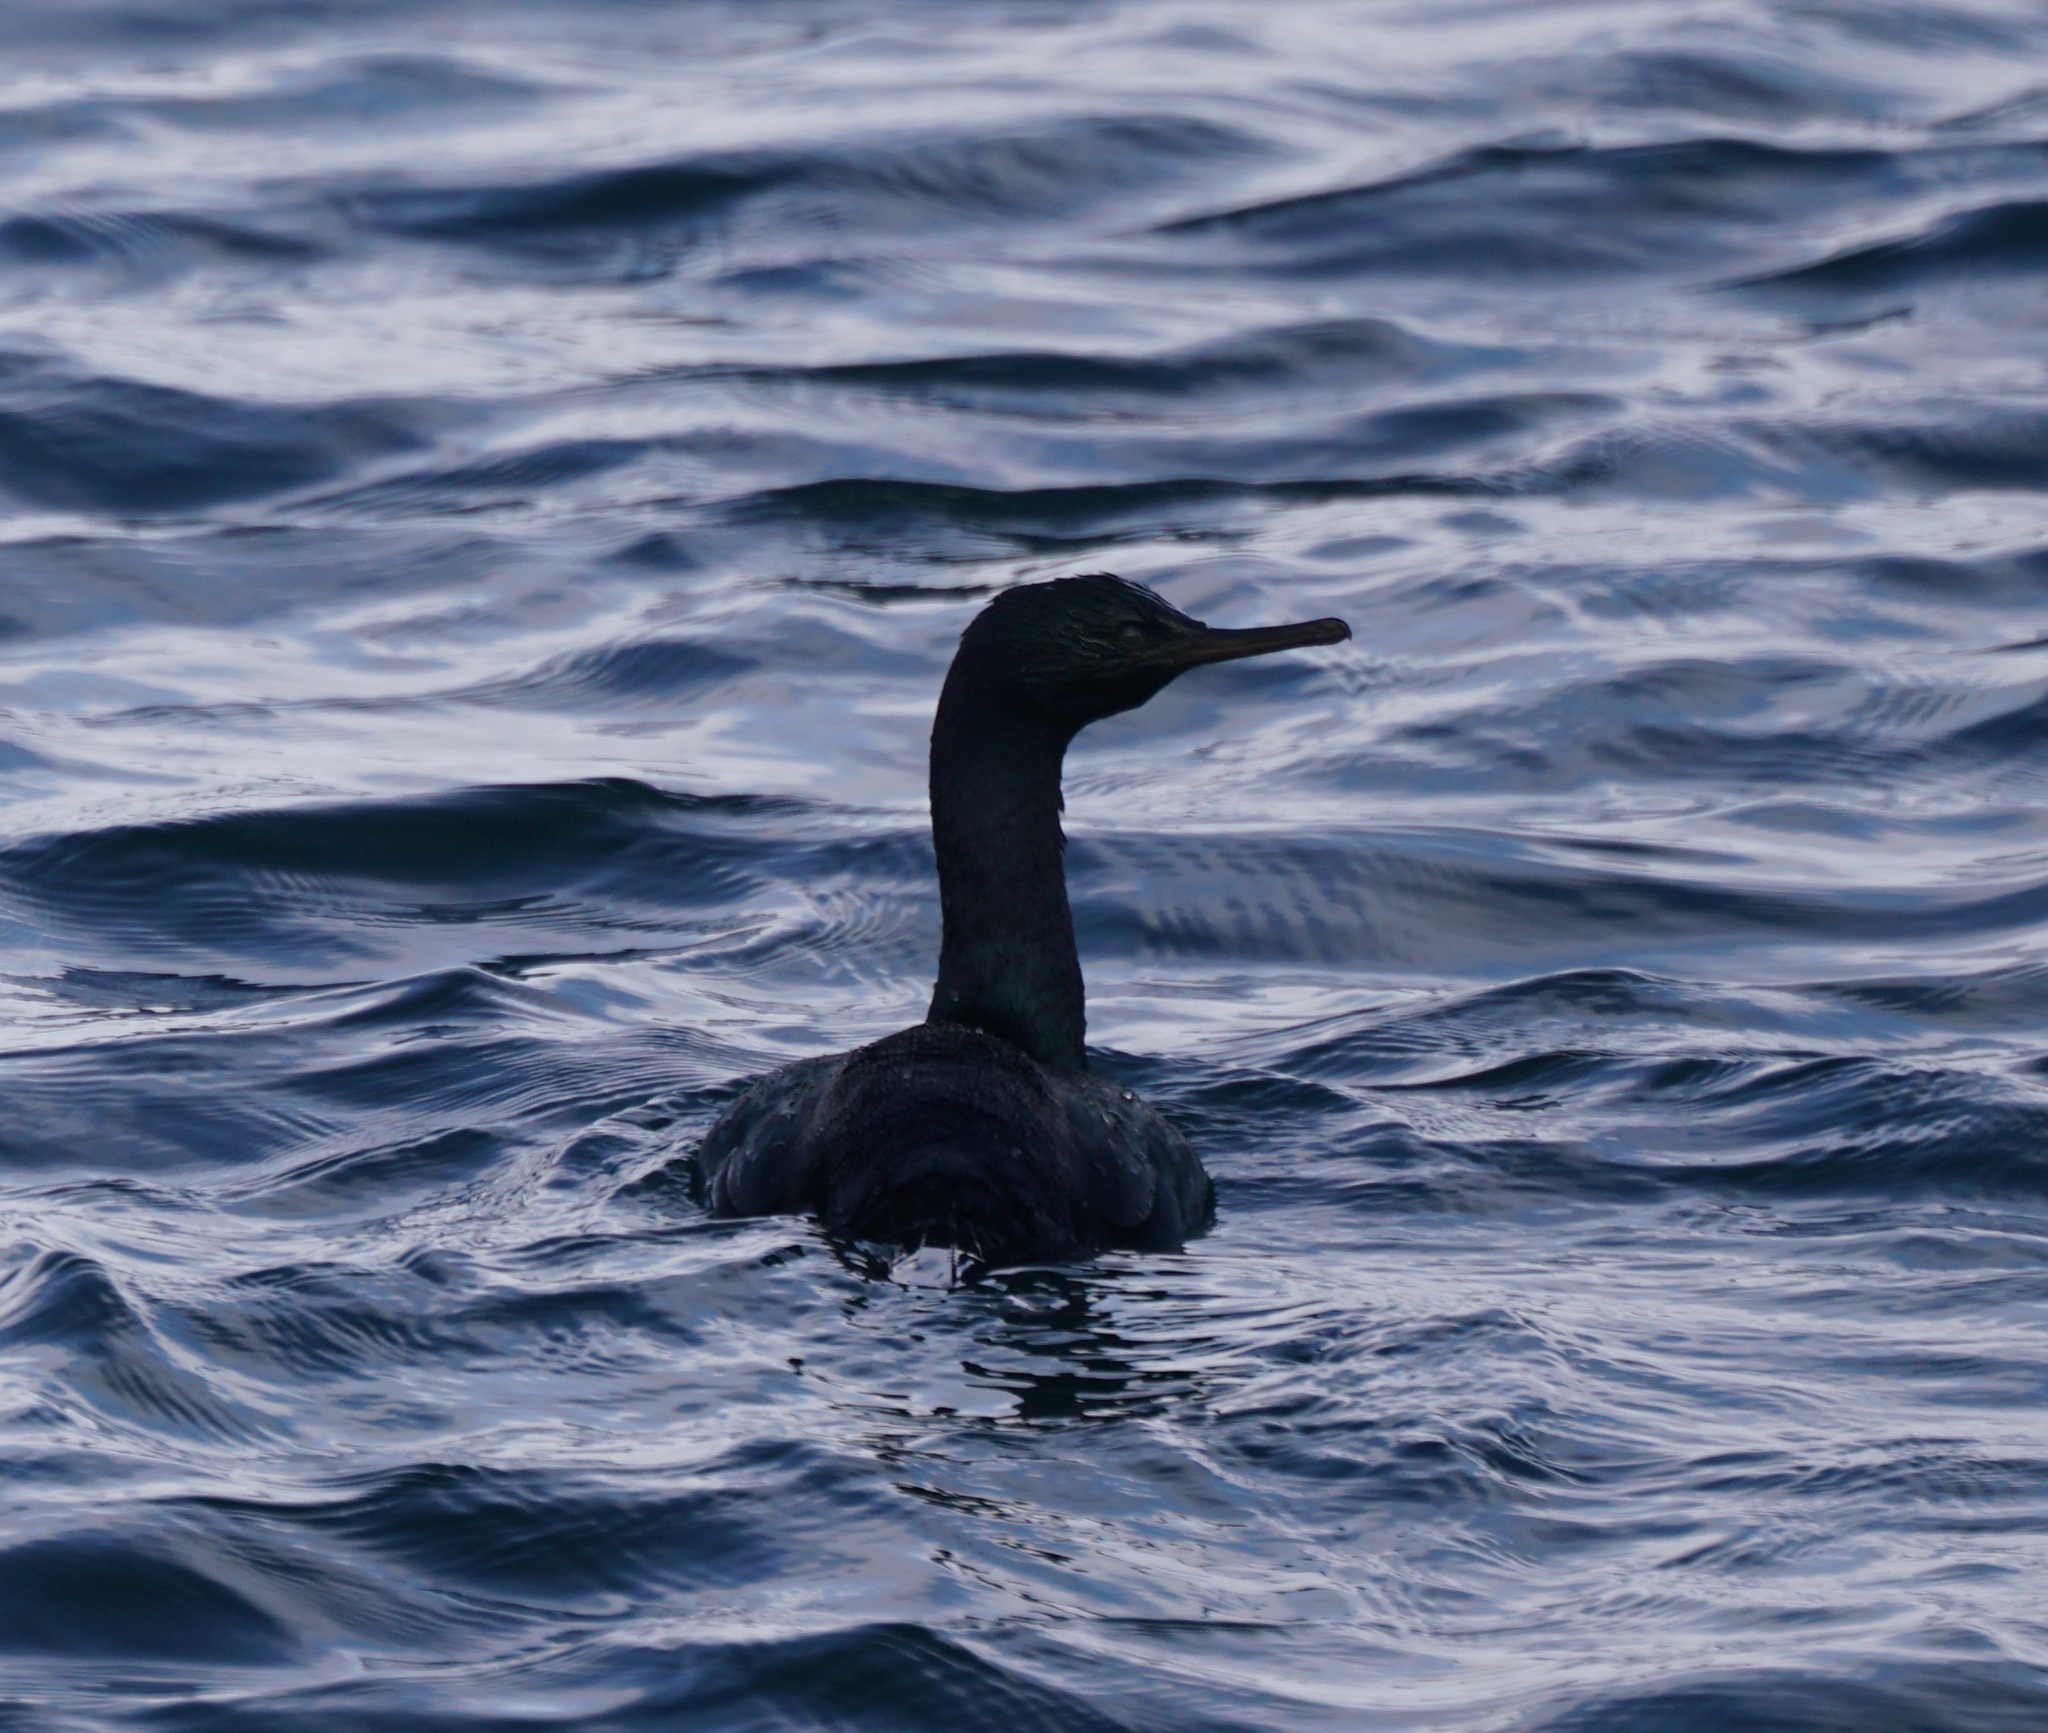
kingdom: Animalia
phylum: Chordata
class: Aves
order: Suliformes
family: Phalacrocoracidae
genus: Phalacrocorax
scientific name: Phalacrocorax pelagicus
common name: Pelagic cormorant
